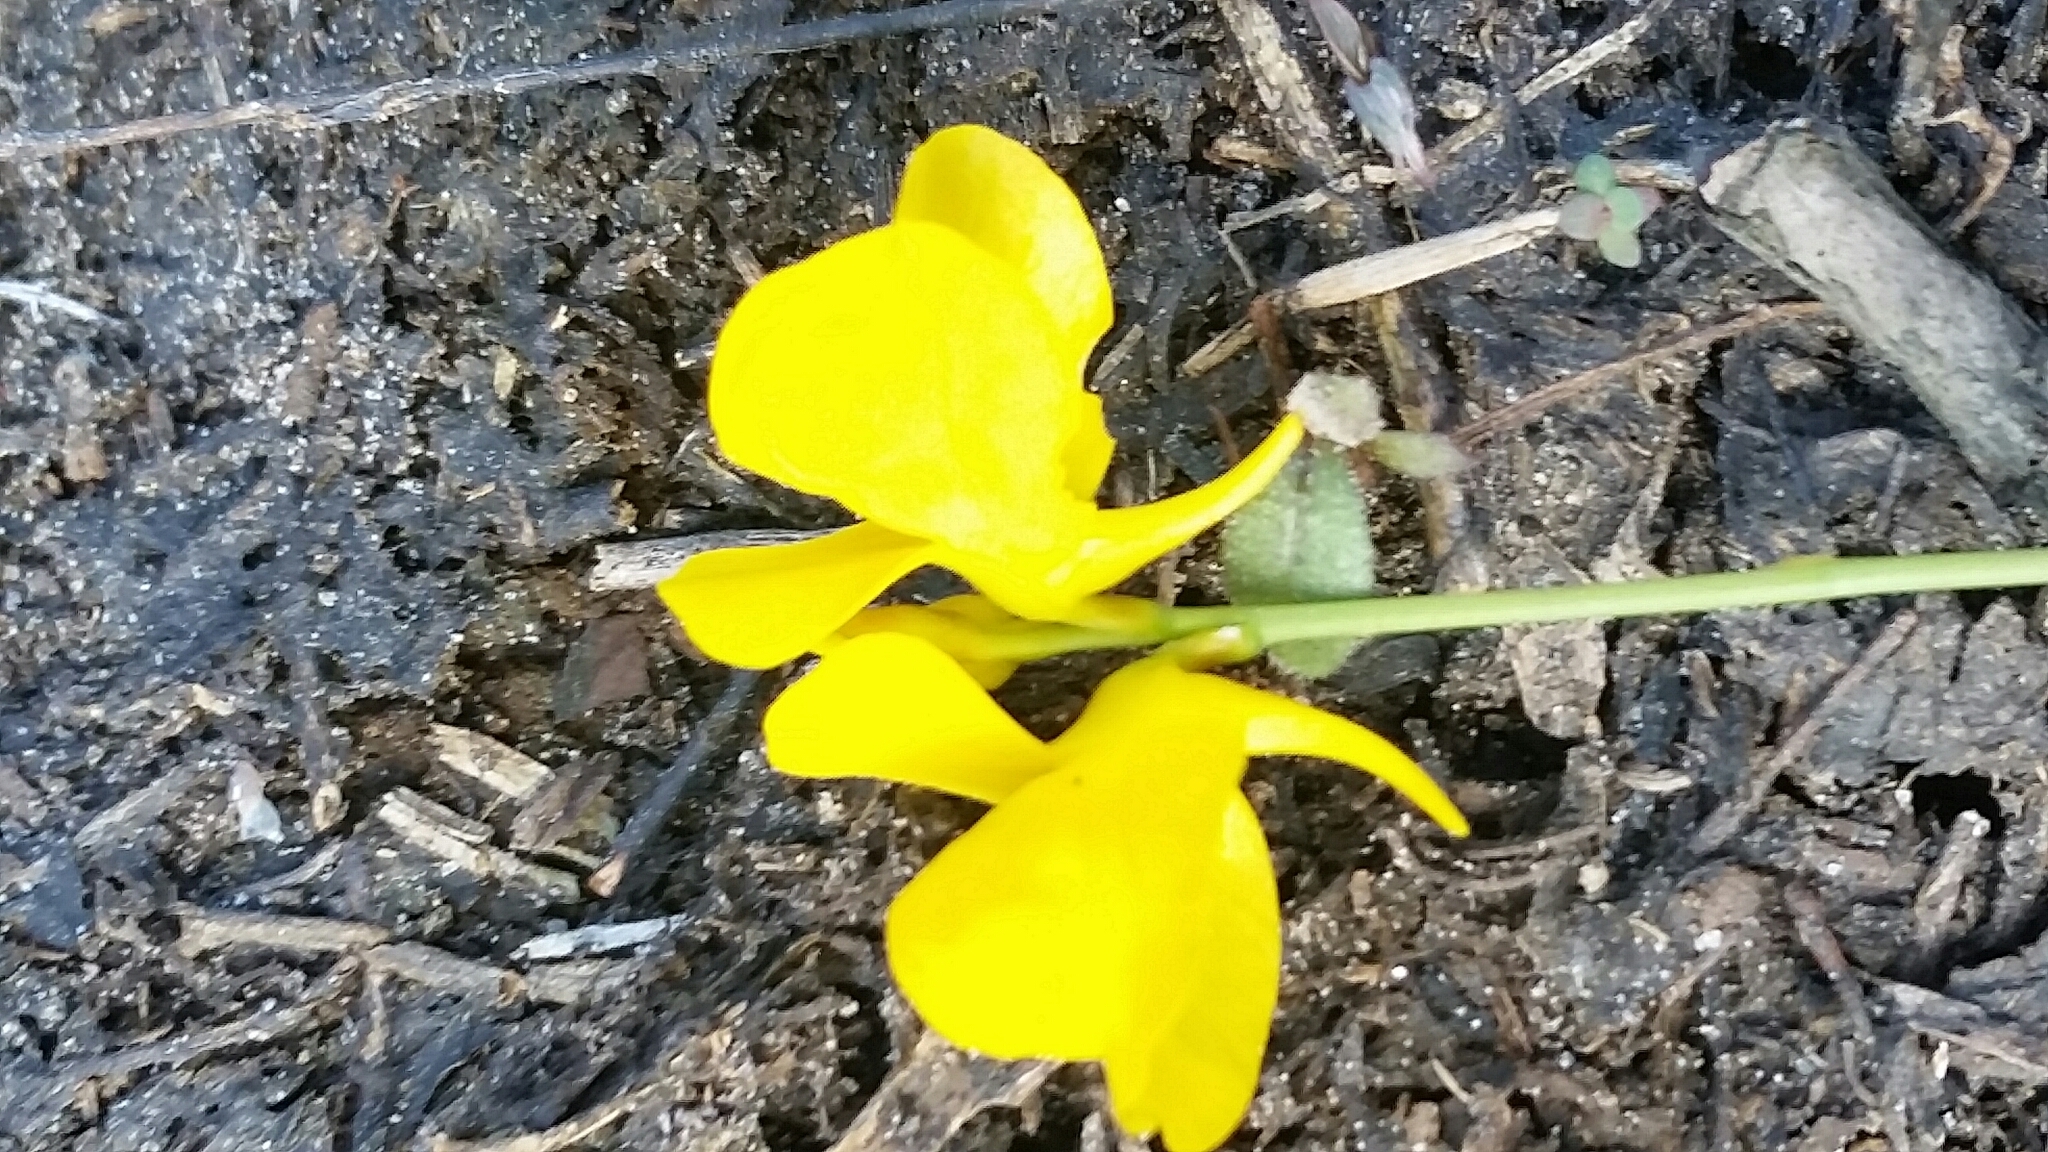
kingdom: Plantae
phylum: Tracheophyta
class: Magnoliopsida
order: Lamiales
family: Lentibulariaceae
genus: Utricularia
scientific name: Utricularia cornuta
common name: Horned bladderwort
